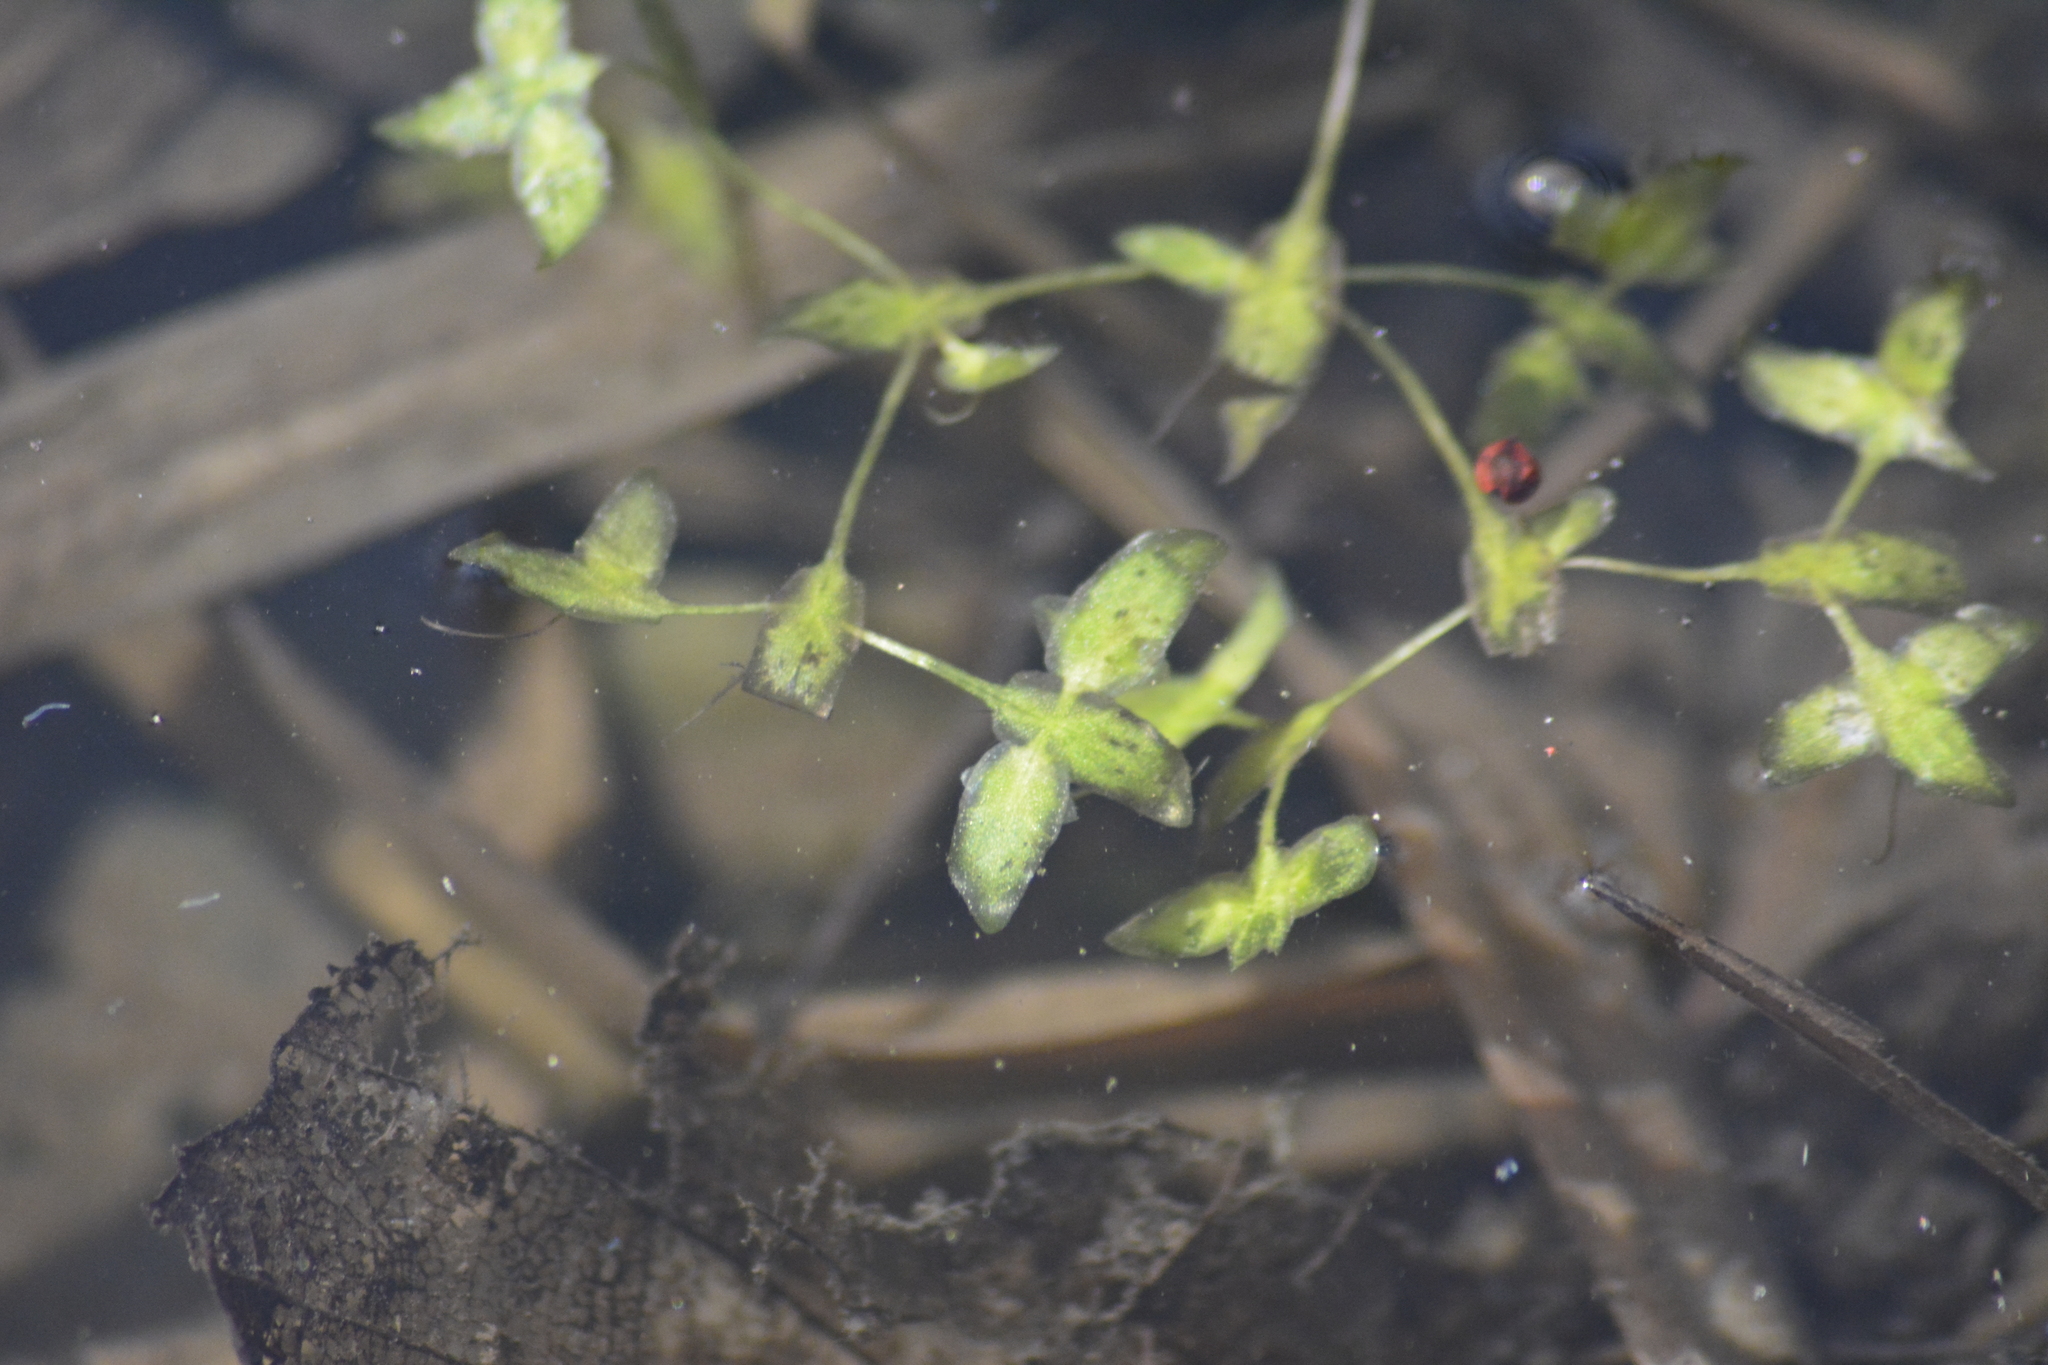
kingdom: Plantae
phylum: Tracheophyta
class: Liliopsida
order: Alismatales
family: Araceae
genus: Lemna
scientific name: Lemna trisulca
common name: Ivy-leaved duckweed
